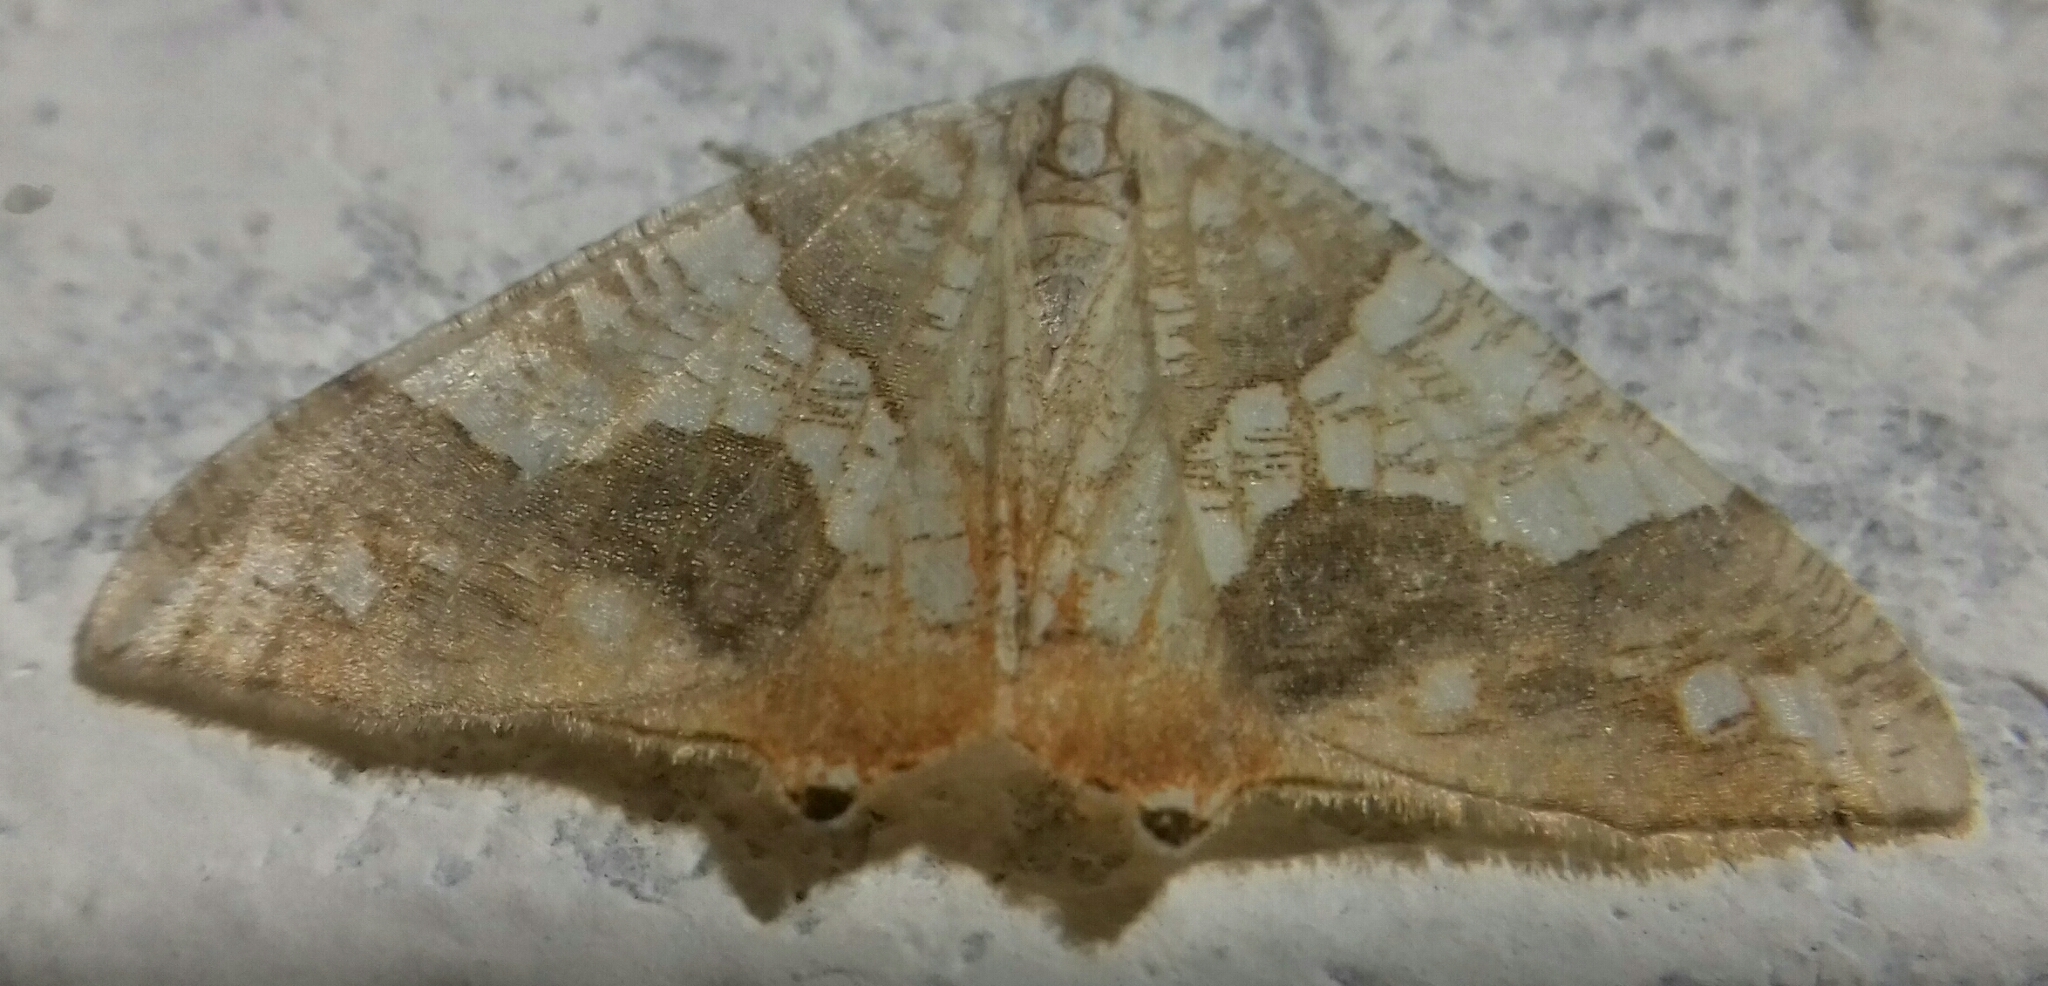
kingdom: Animalia
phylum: Arthropoda
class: Insecta
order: Lepidoptera
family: Geometridae
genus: Rindgeria
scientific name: Rindgeria ornata
